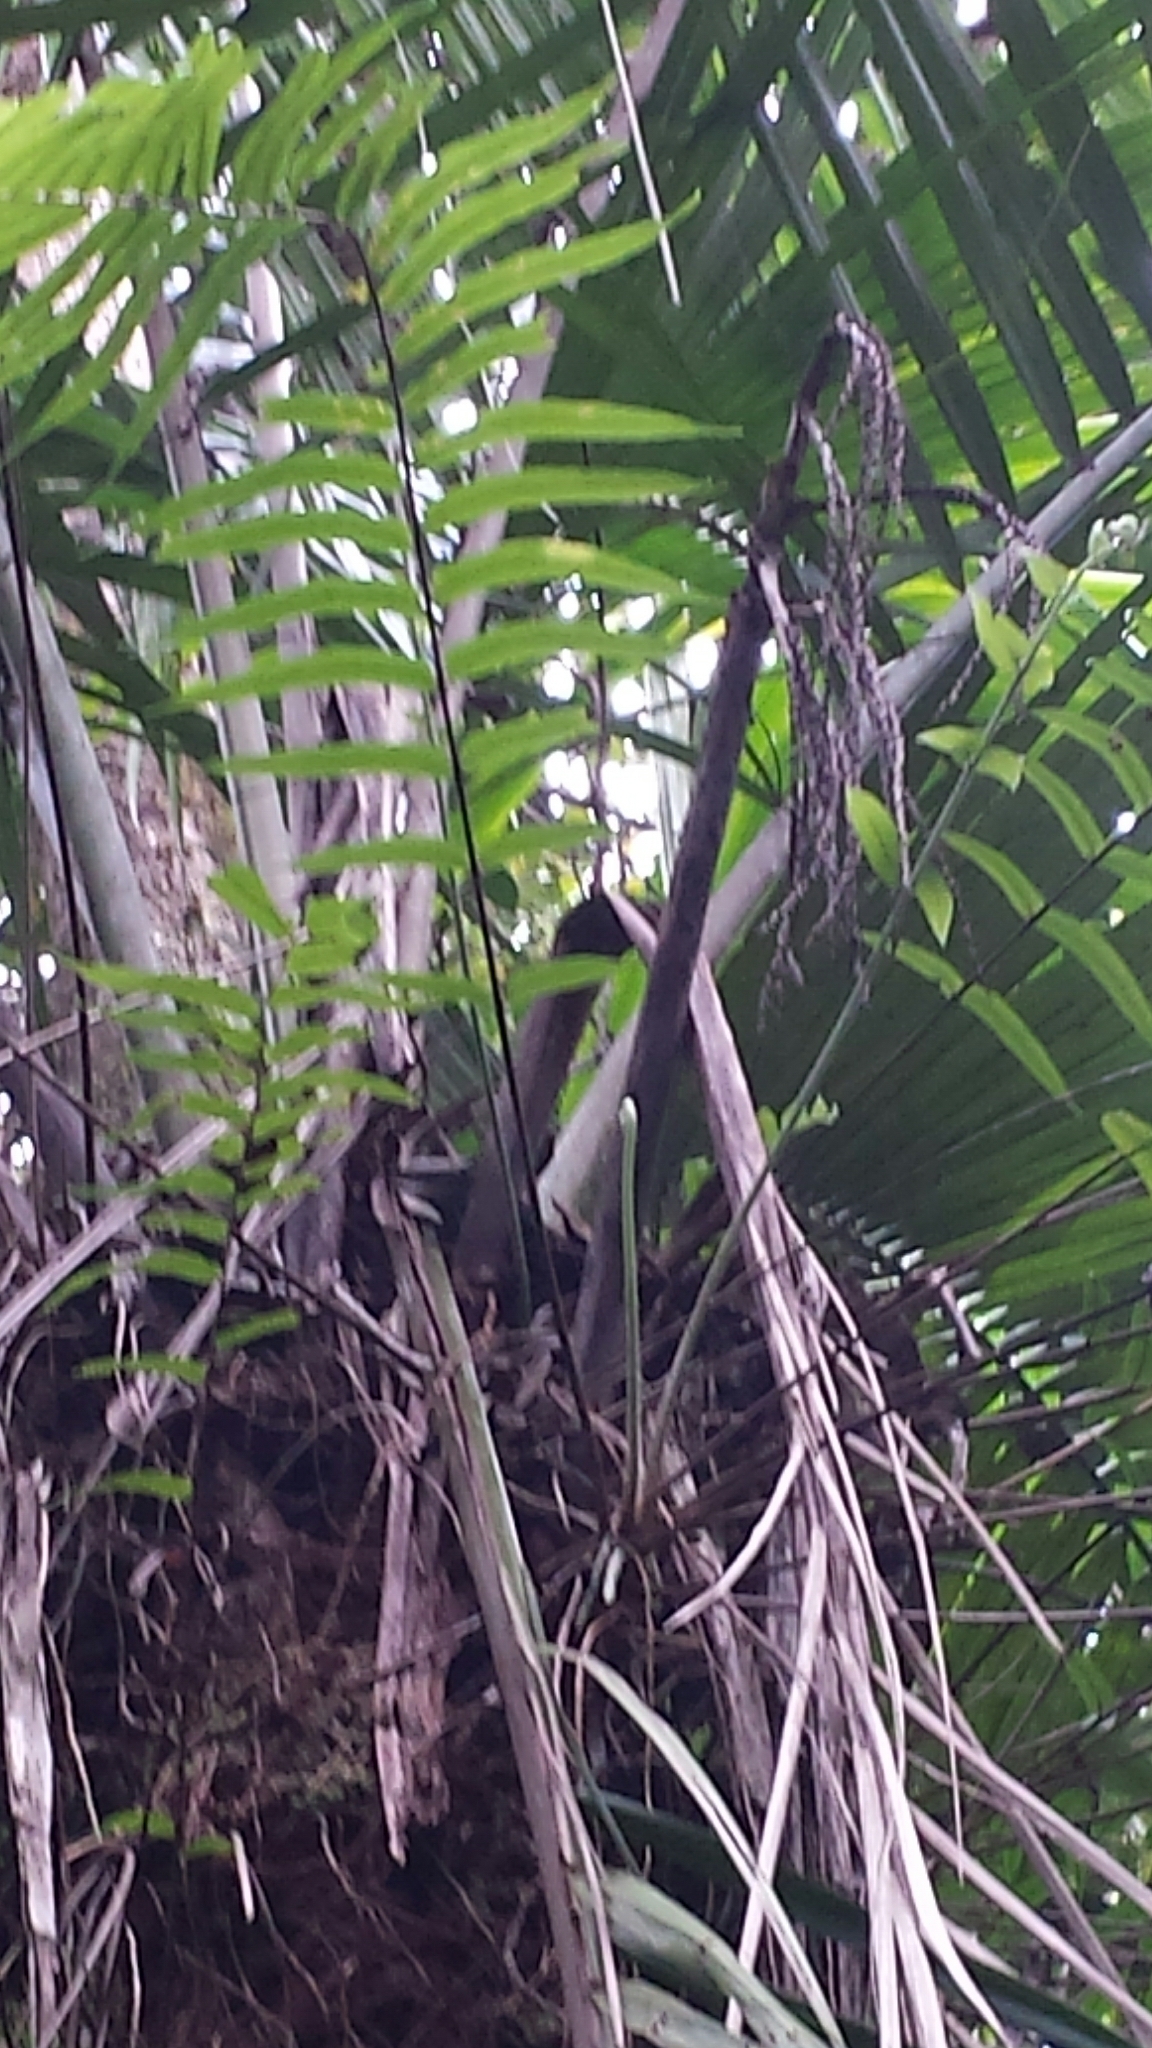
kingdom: Plantae
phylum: Tracheophyta
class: Liliopsida
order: Arecales
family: Arecaceae
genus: Dypsis
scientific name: Dypsis perrieri
